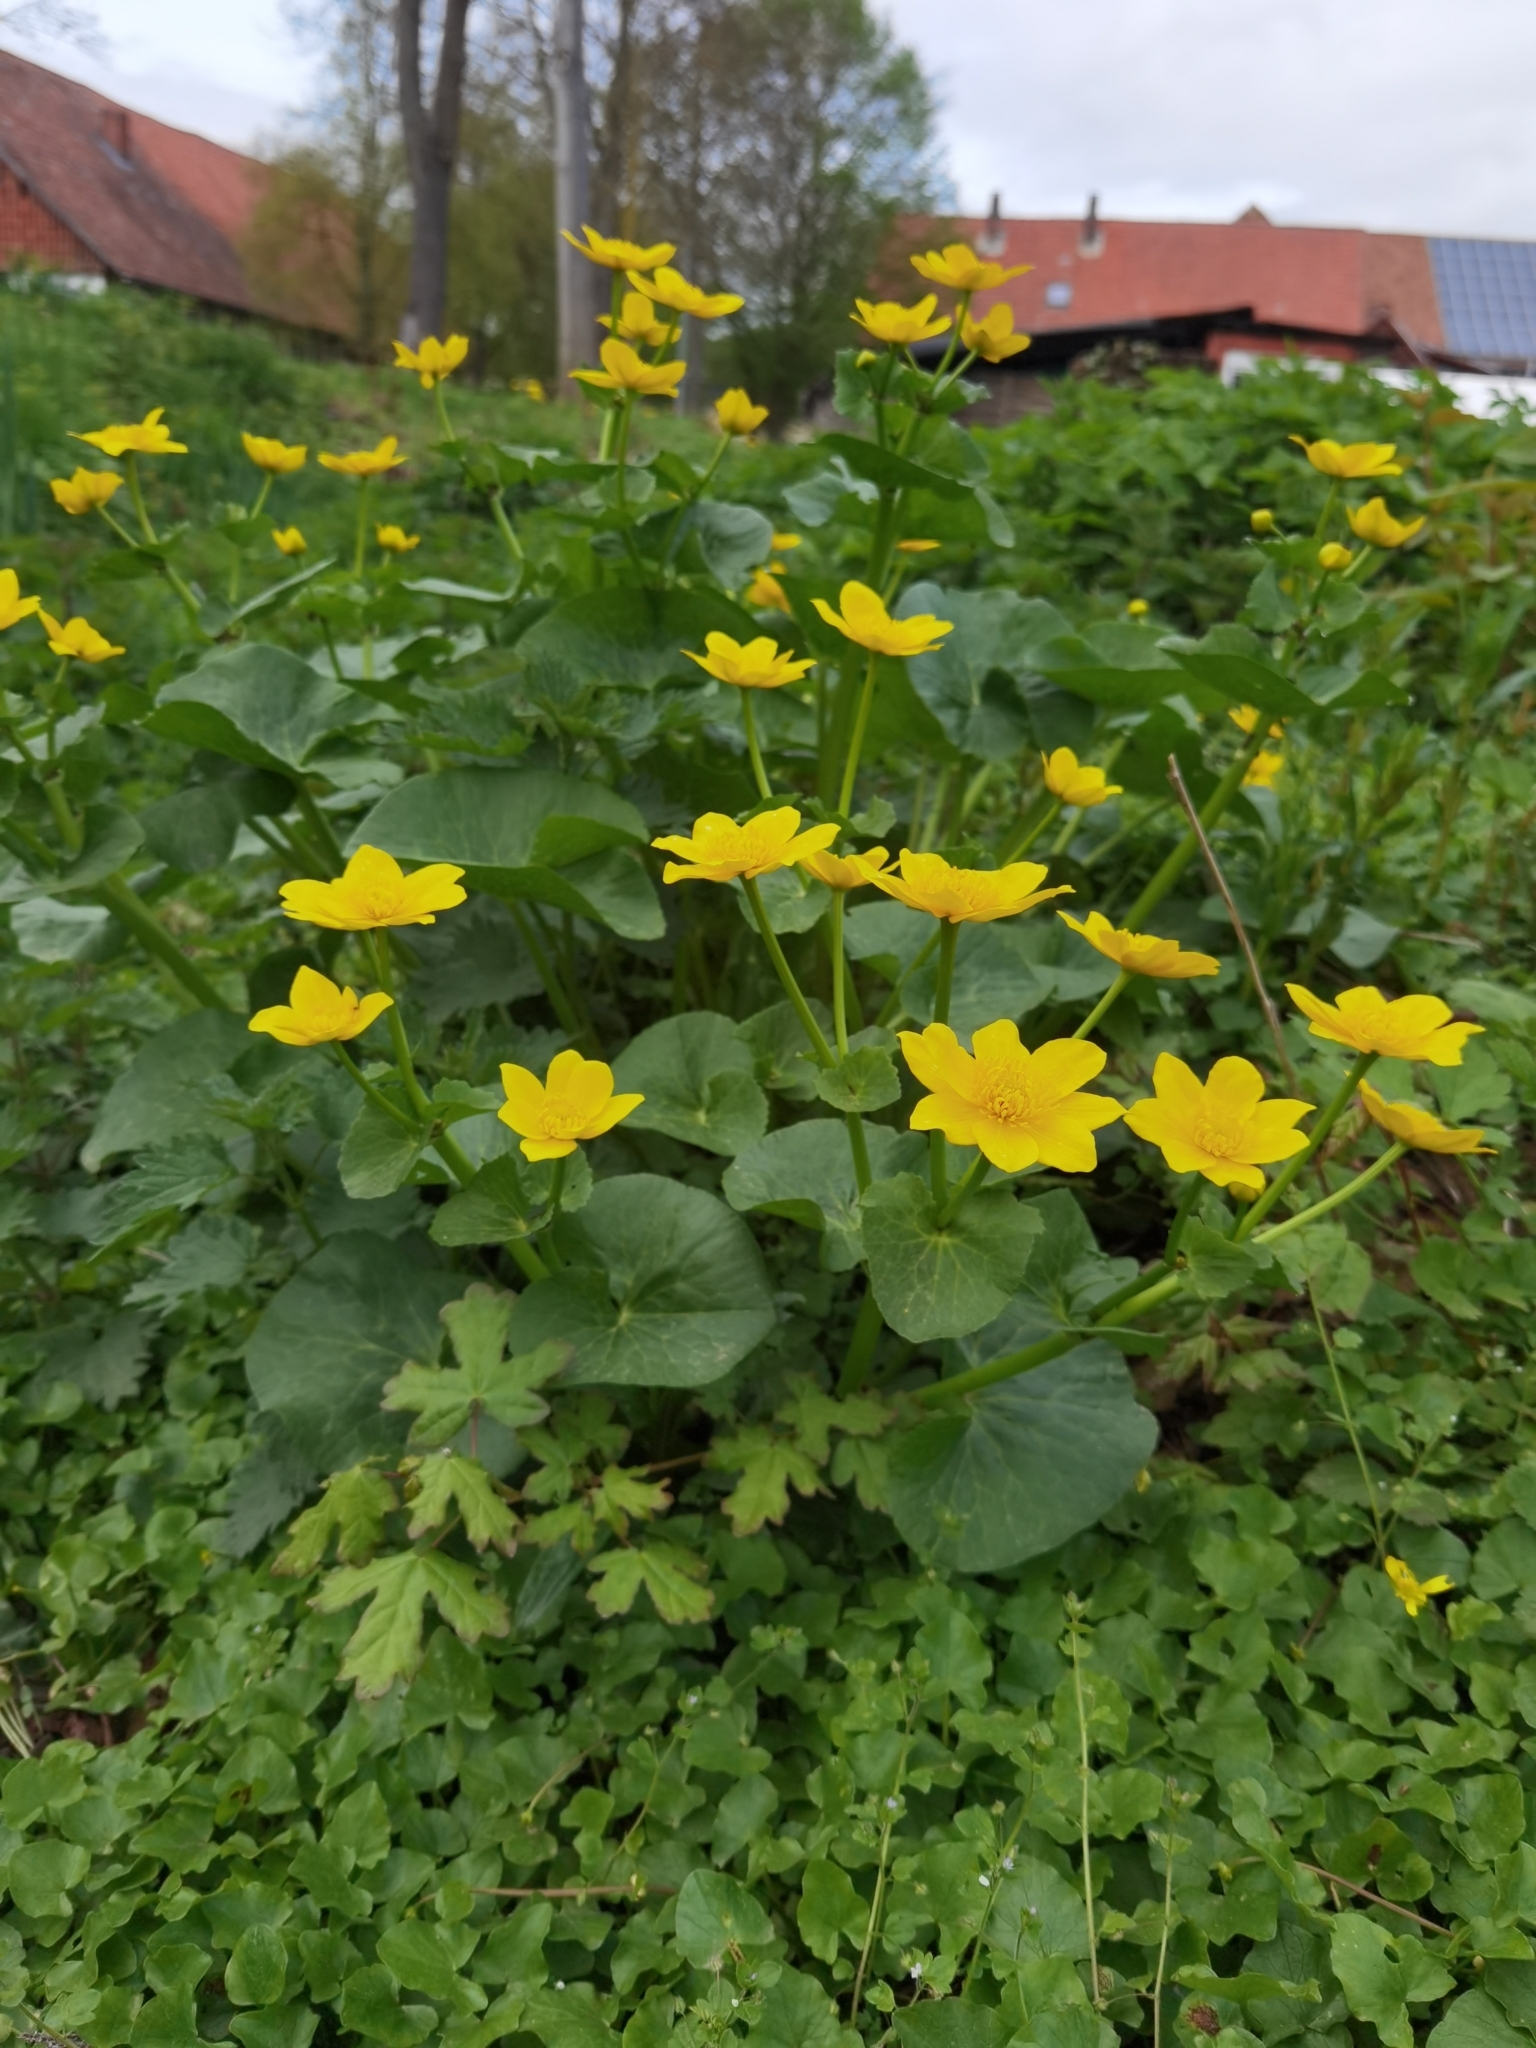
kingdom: Plantae
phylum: Tracheophyta
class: Magnoliopsida
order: Ranunculales
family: Ranunculaceae
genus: Caltha
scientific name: Caltha palustris
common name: Marsh marigold
